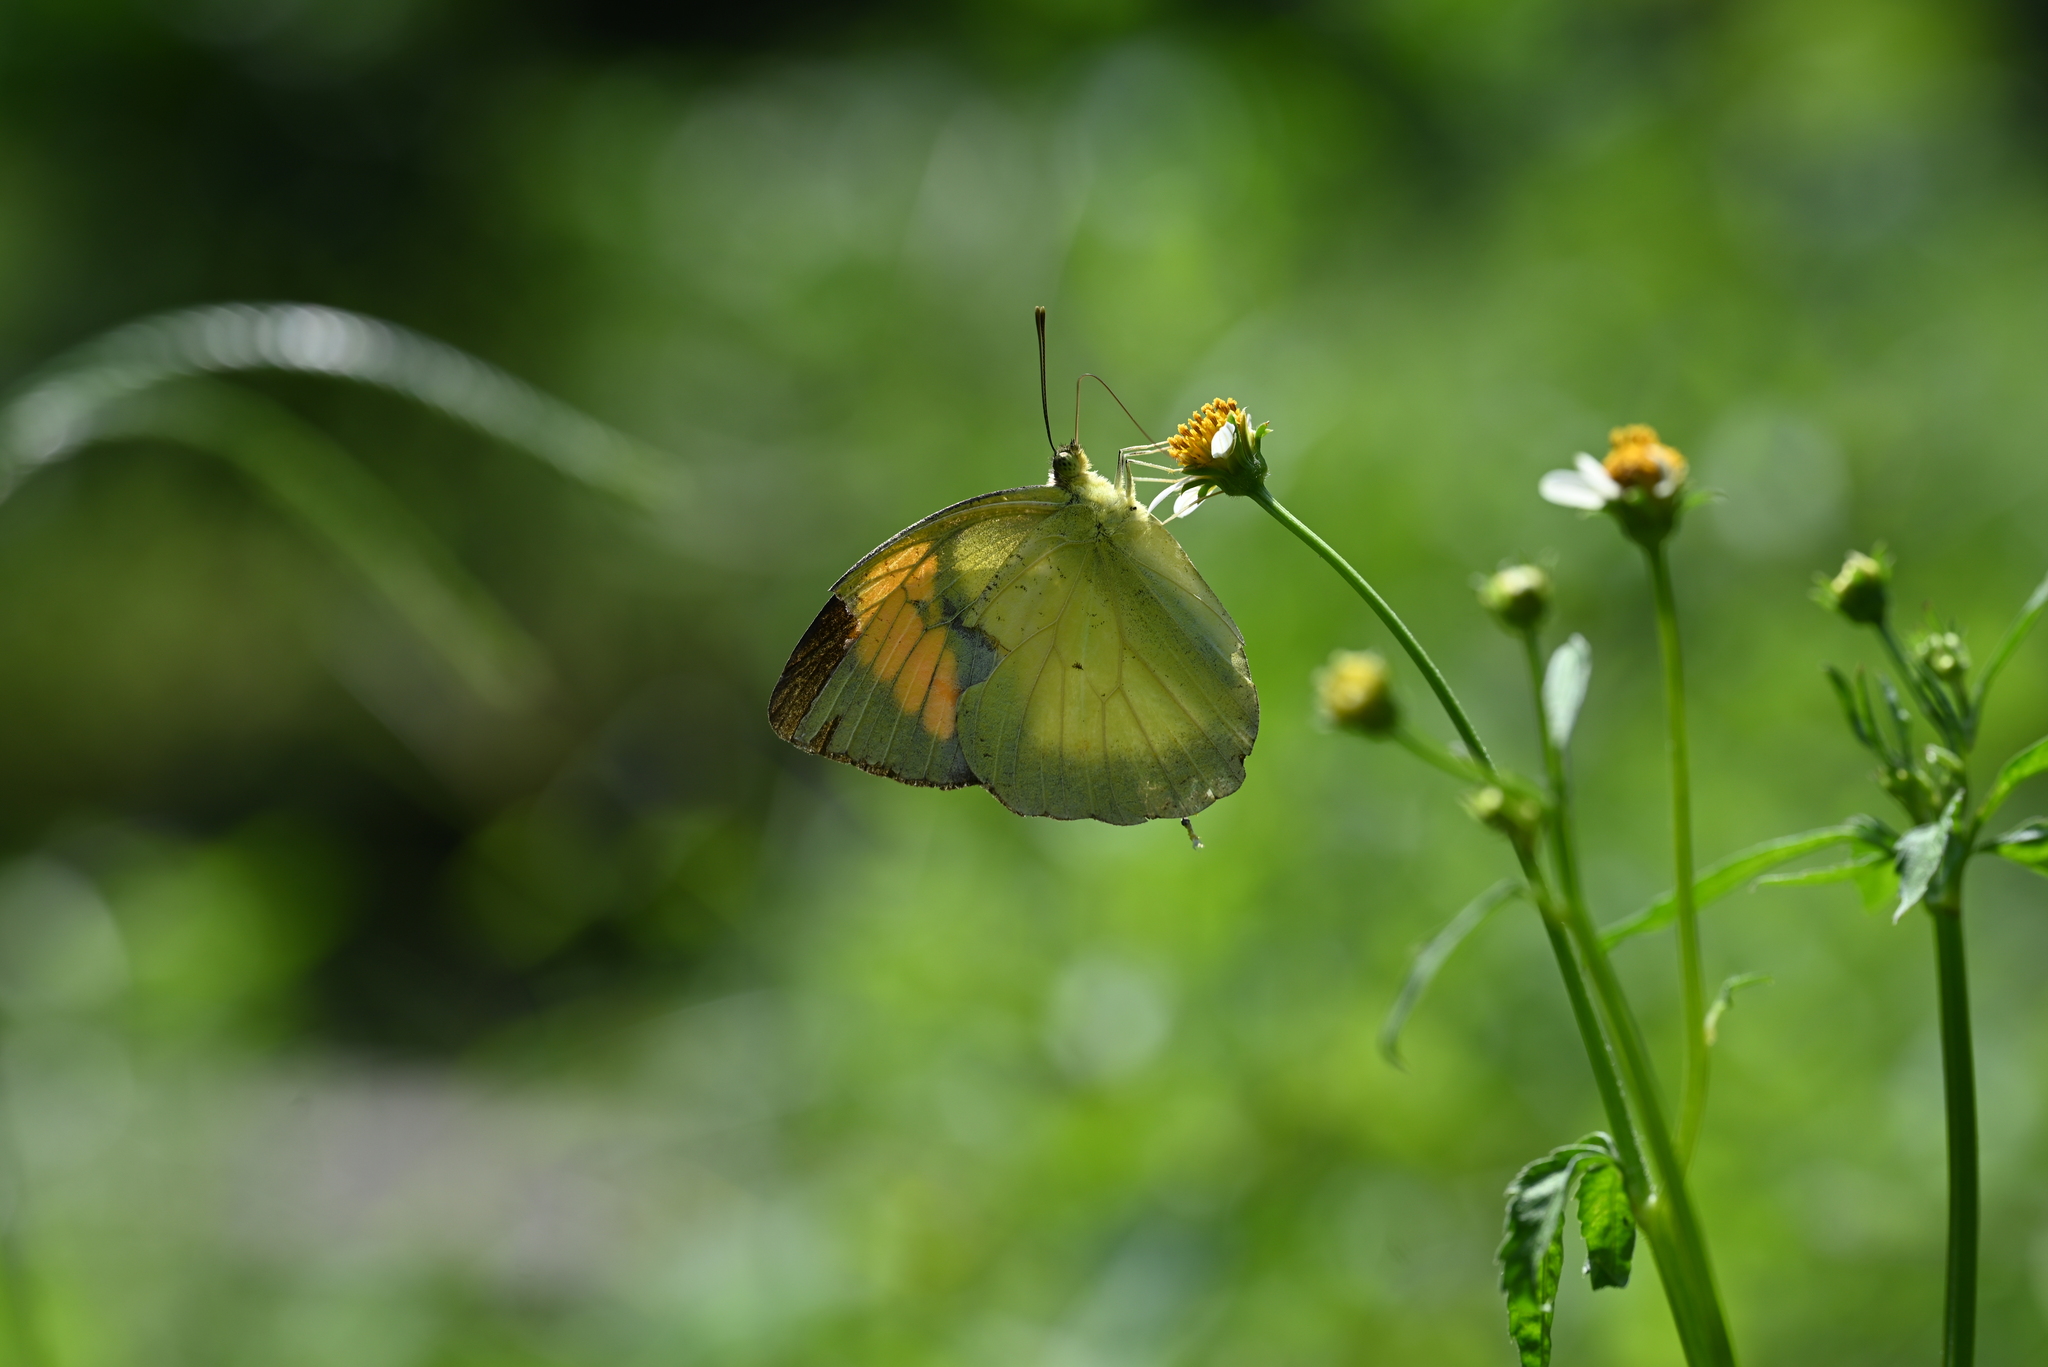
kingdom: Animalia
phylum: Arthropoda
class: Insecta
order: Lepidoptera
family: Pieridae
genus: Ixias
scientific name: Ixias pyrene
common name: Yellow orange tip
